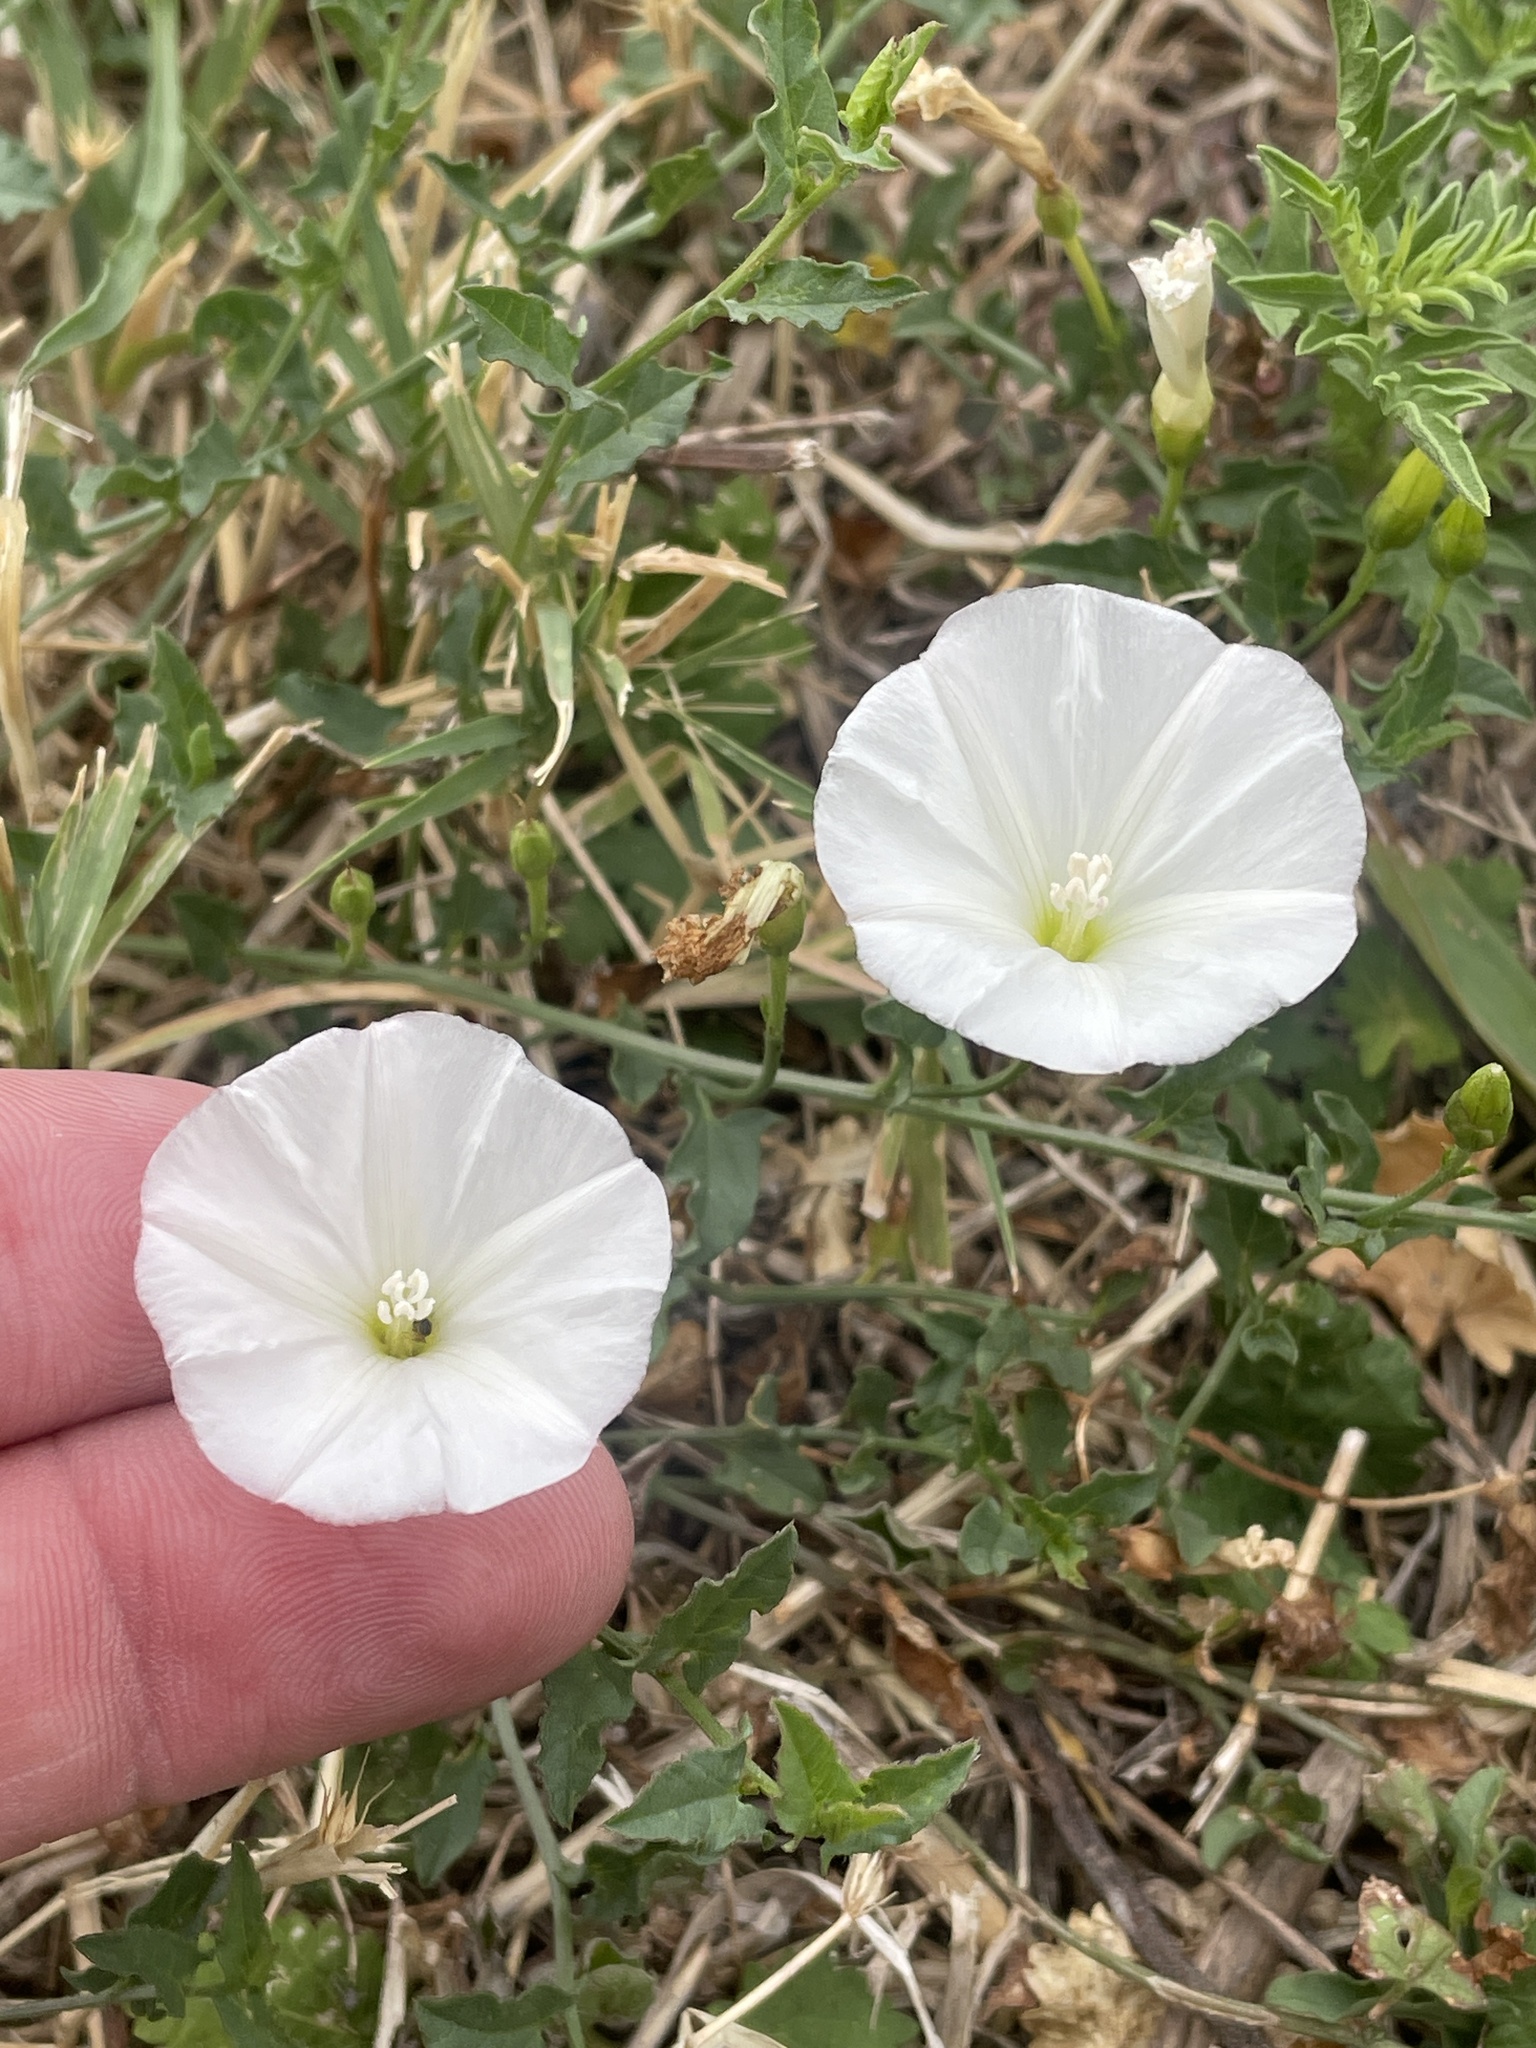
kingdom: Plantae
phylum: Tracheophyta
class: Magnoliopsida
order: Solanales
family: Convolvulaceae
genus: Convolvulus
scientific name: Convolvulus arvensis
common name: Field bindweed
